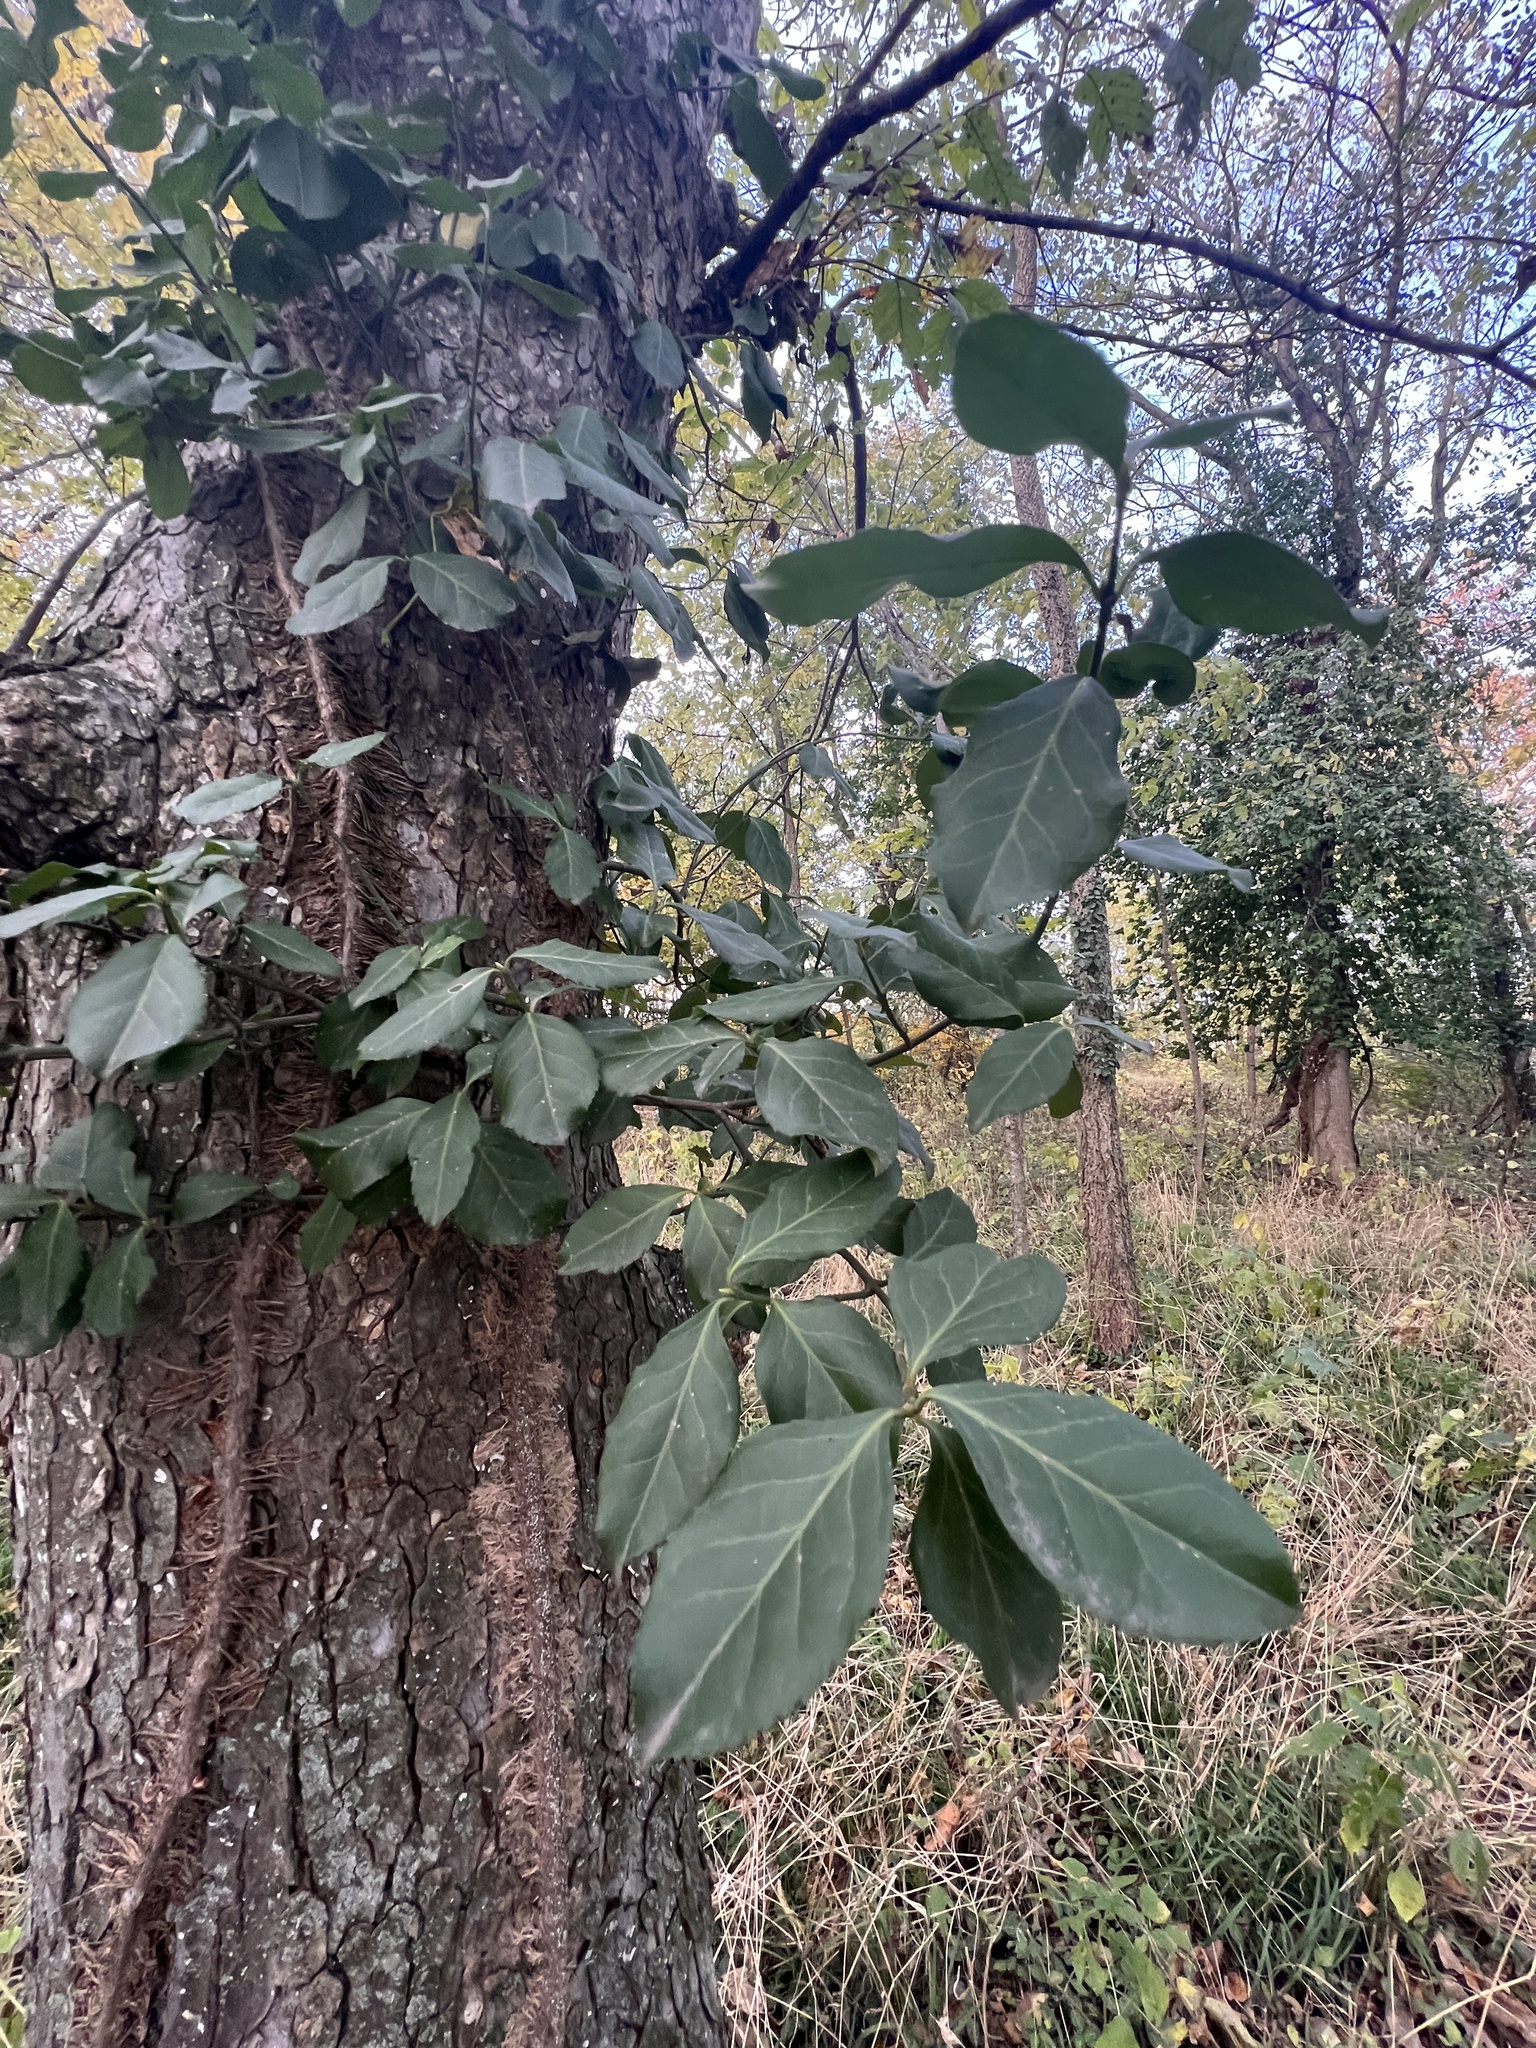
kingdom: Plantae
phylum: Tracheophyta
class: Magnoliopsida
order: Celastrales
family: Celastraceae
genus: Euonymus
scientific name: Euonymus fortunei
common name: Climbing euonymus
